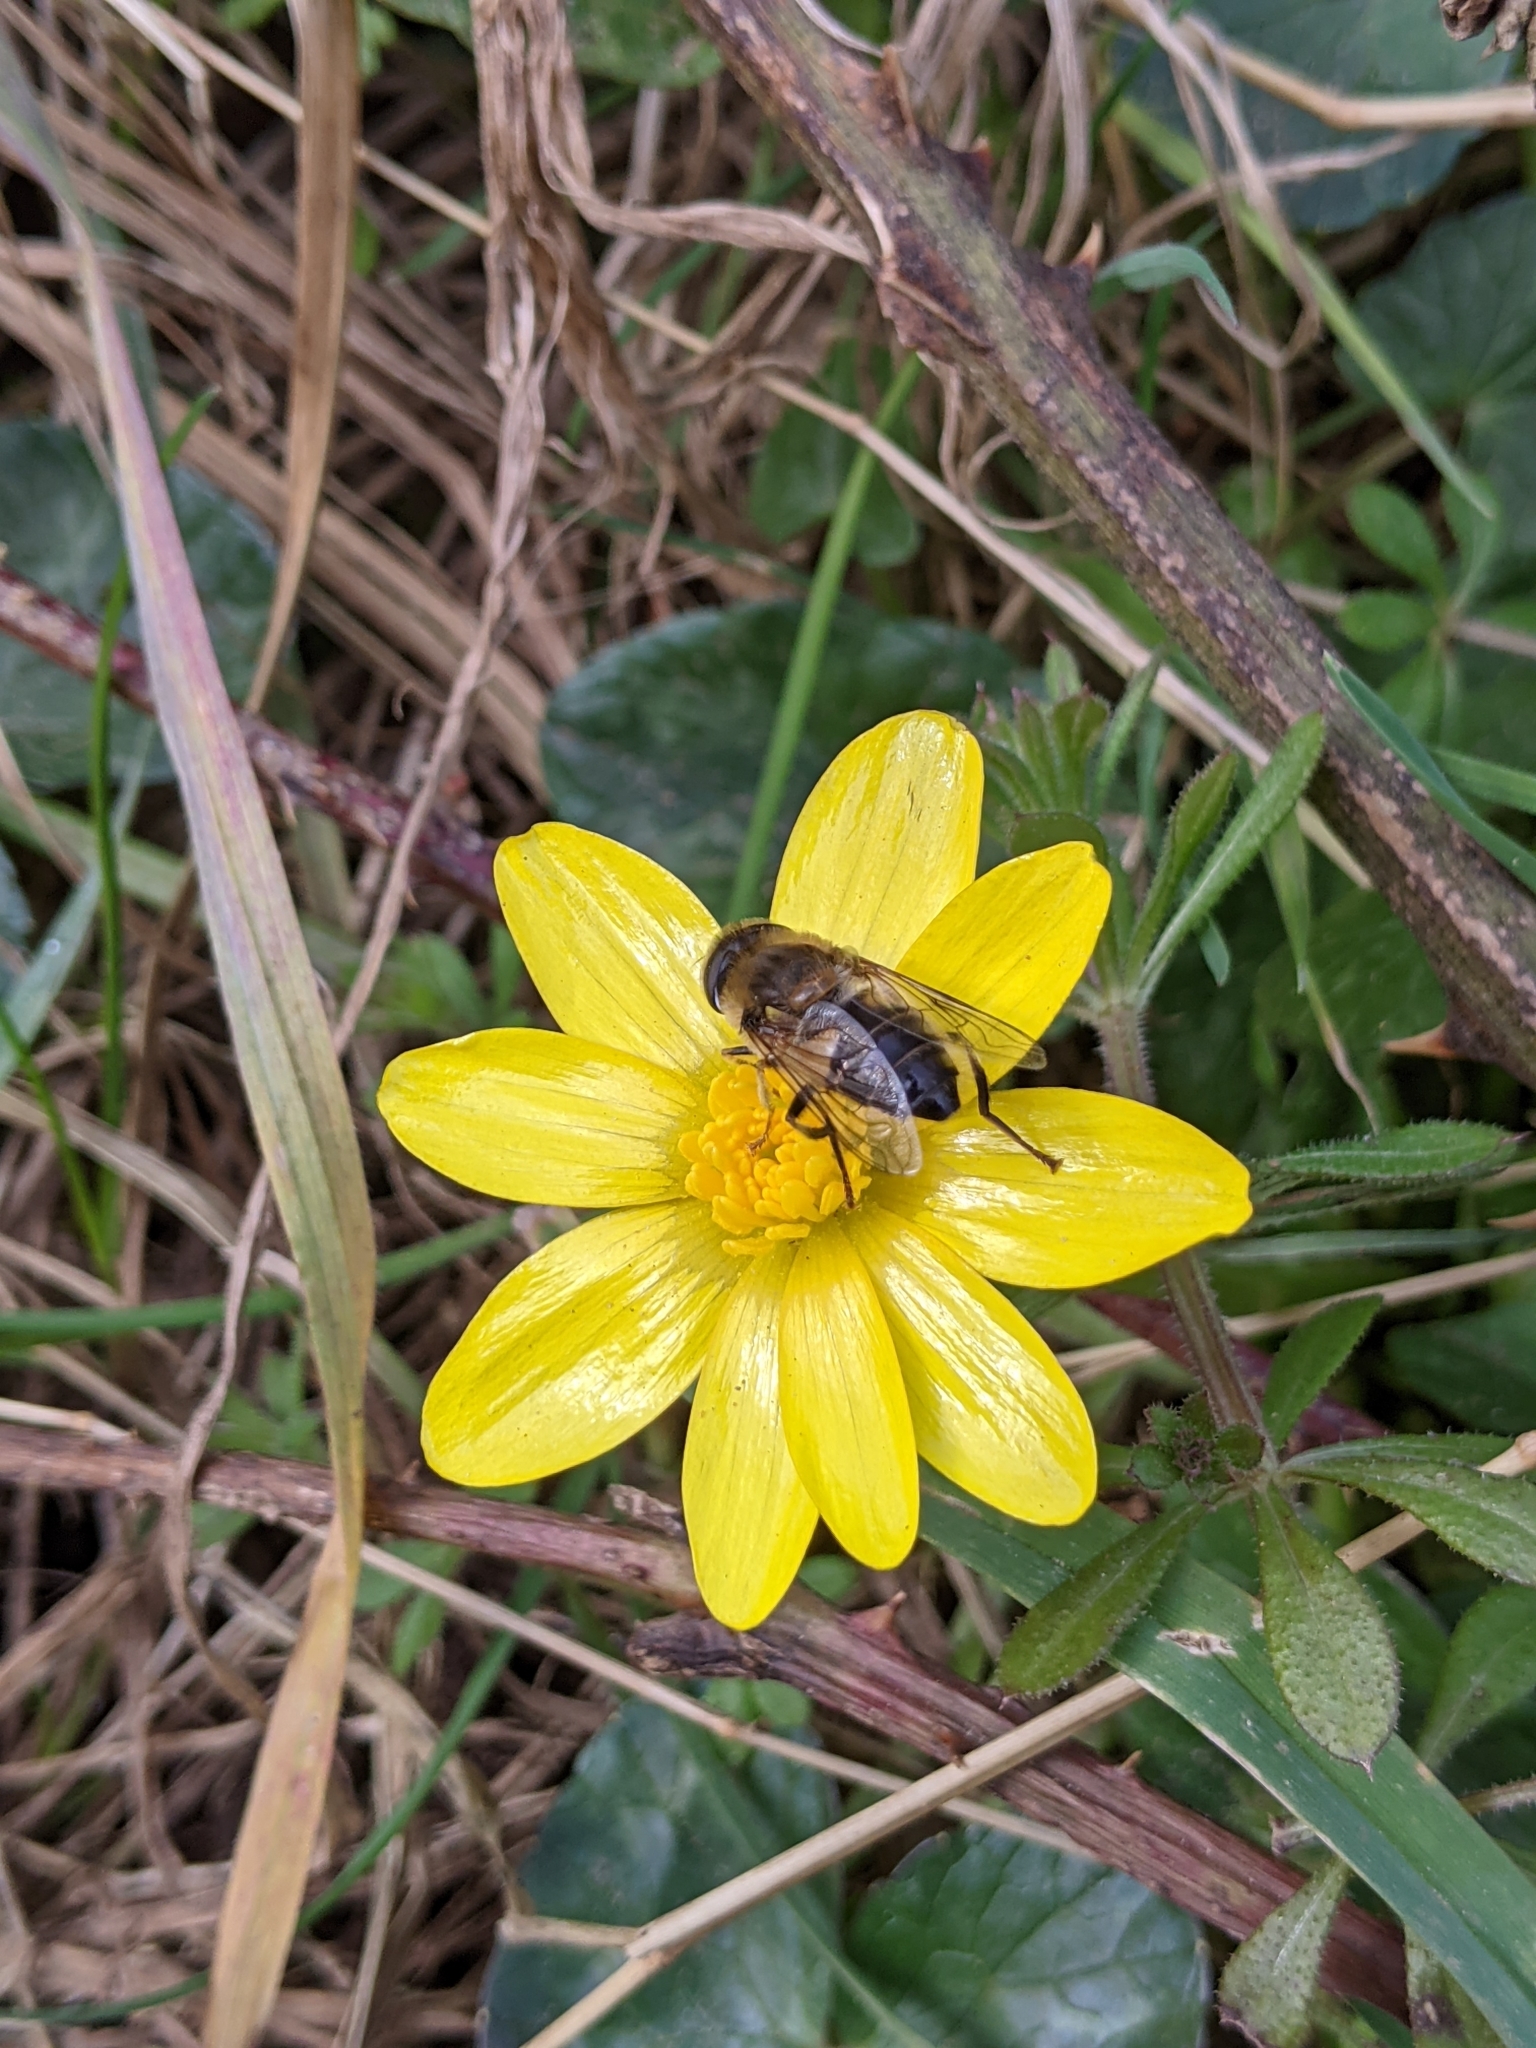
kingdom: Animalia
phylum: Arthropoda
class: Insecta
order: Diptera
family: Syrphidae
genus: Eristalis
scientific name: Eristalis pertinax
